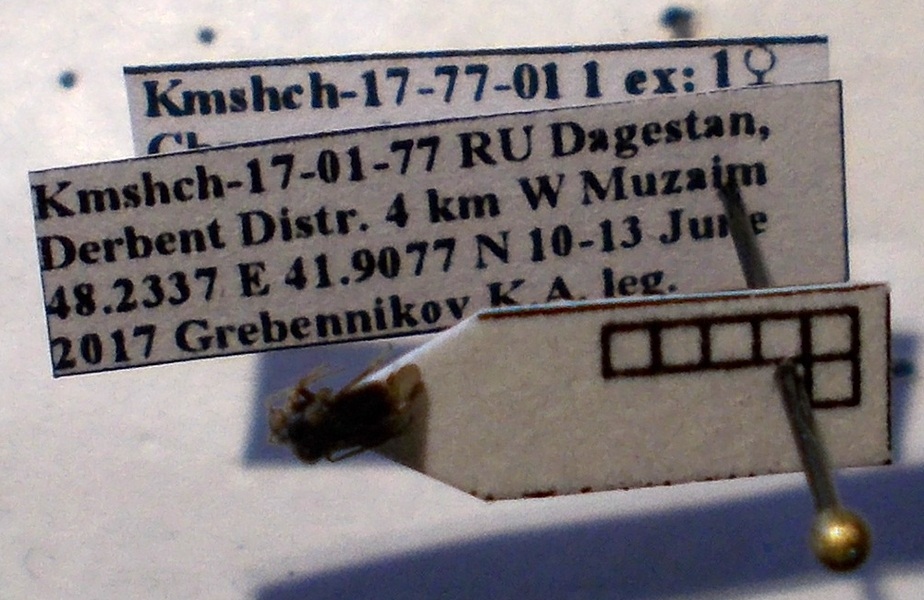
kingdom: Animalia
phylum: Arthropoda
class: Insecta
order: Hemiptera
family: Miridae
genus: Charagochilus
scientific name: Charagochilus gyllenhalii
